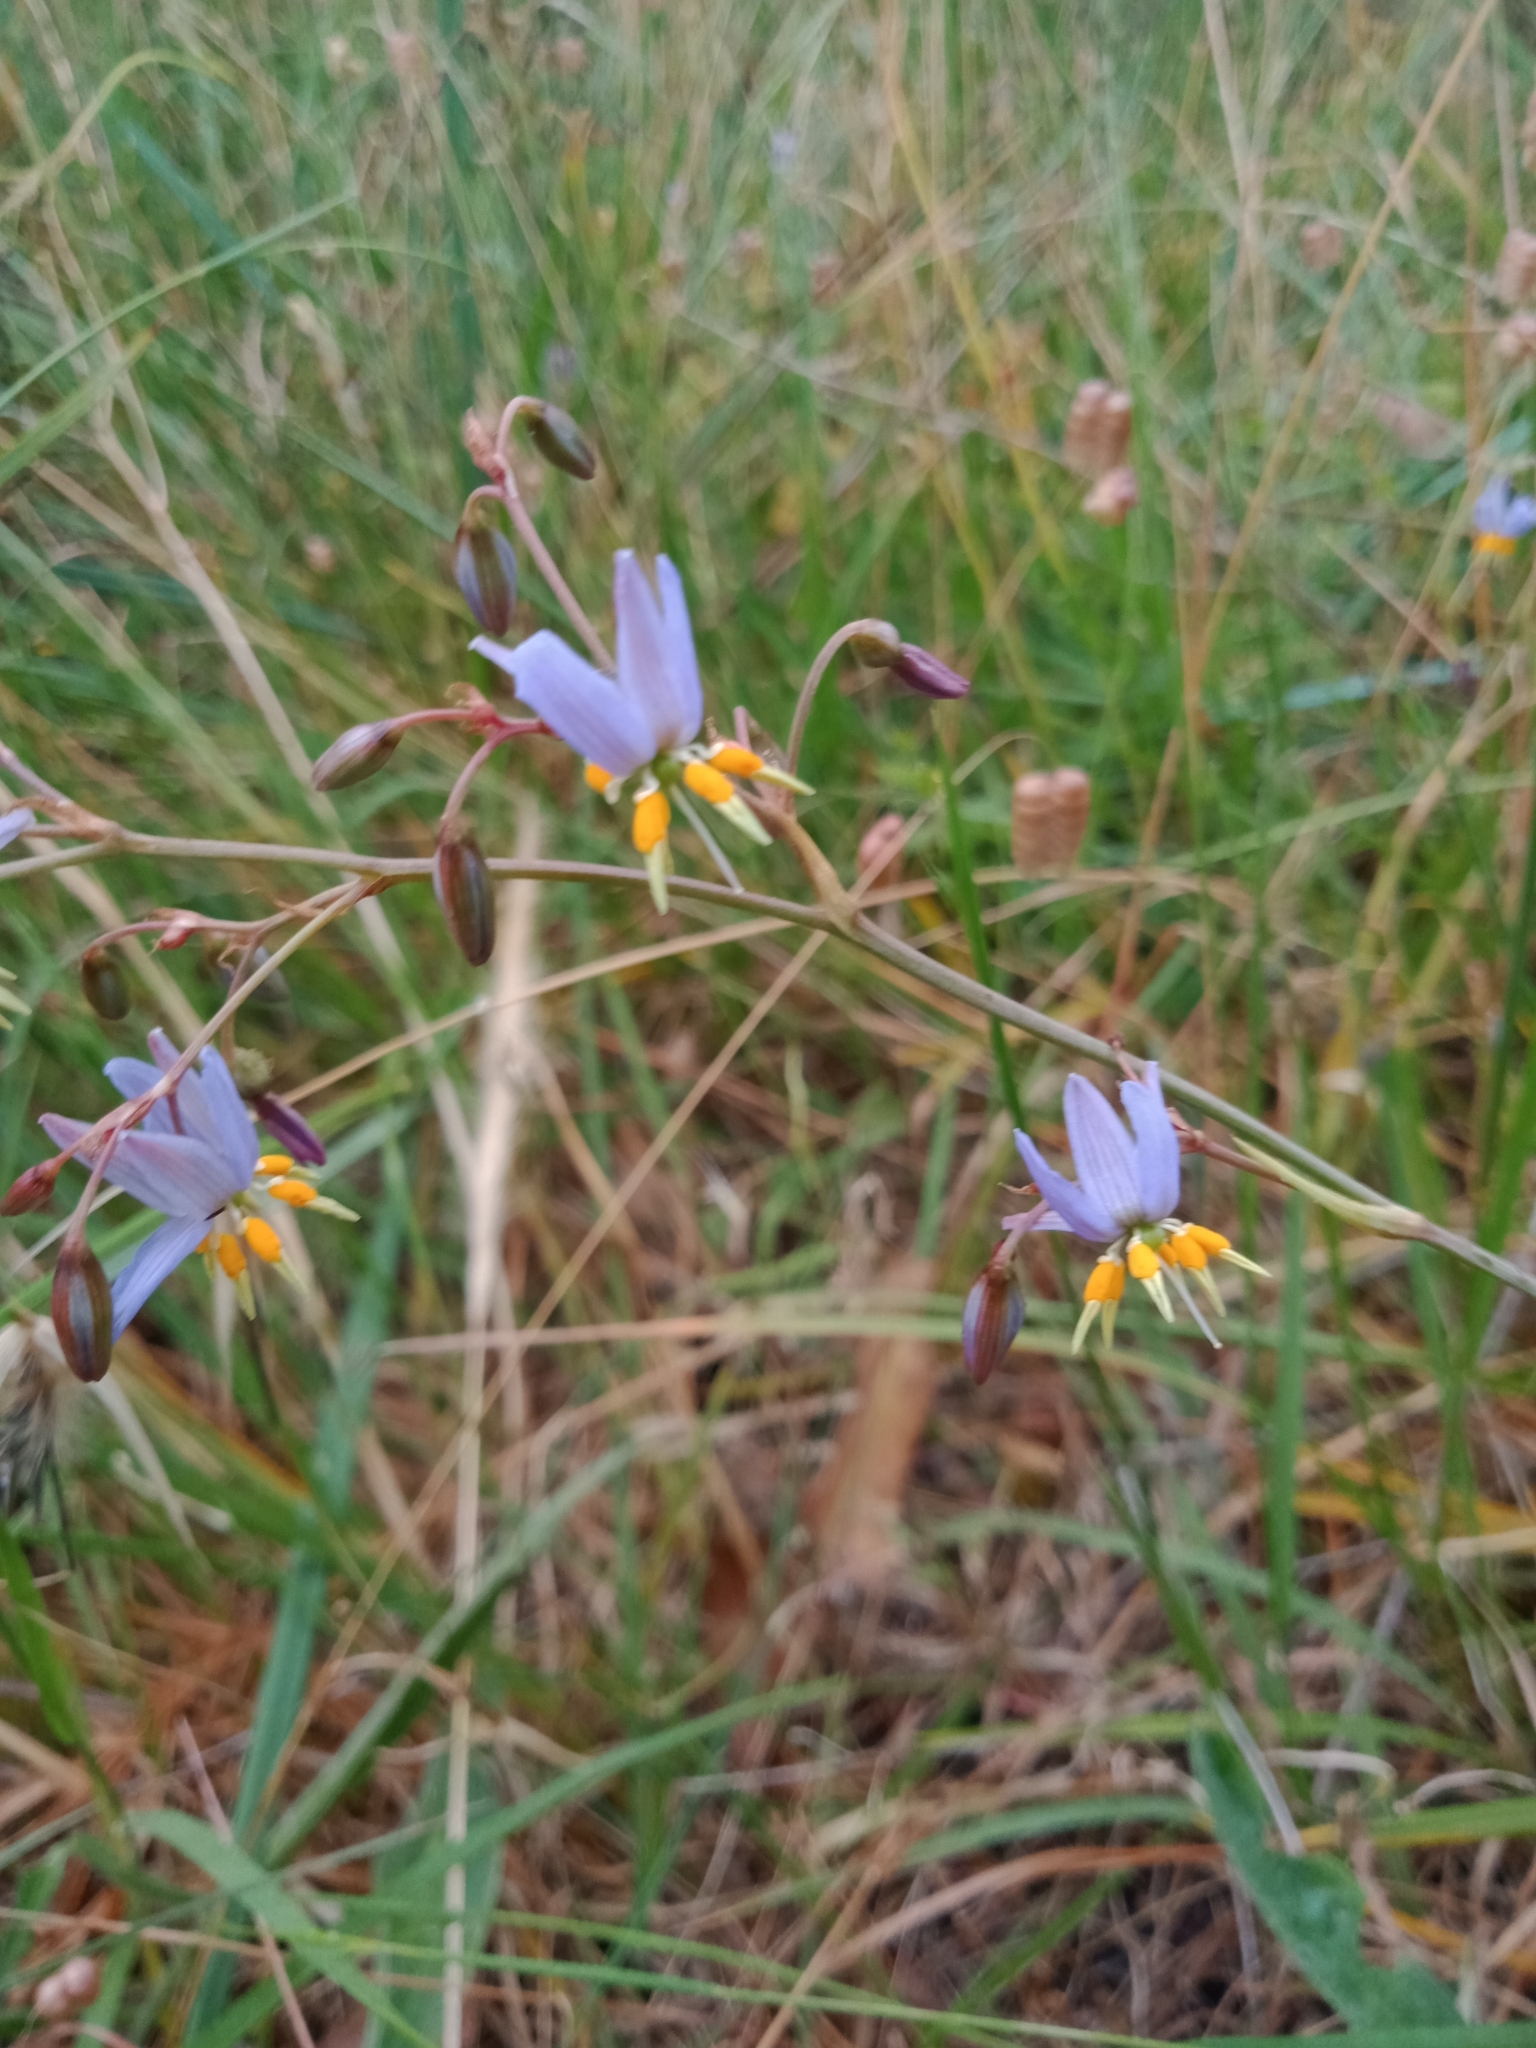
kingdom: Plantae
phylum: Tracheophyta
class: Liliopsida
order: Asparagales
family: Asphodelaceae
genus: Dianella
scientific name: Dianella amoena
